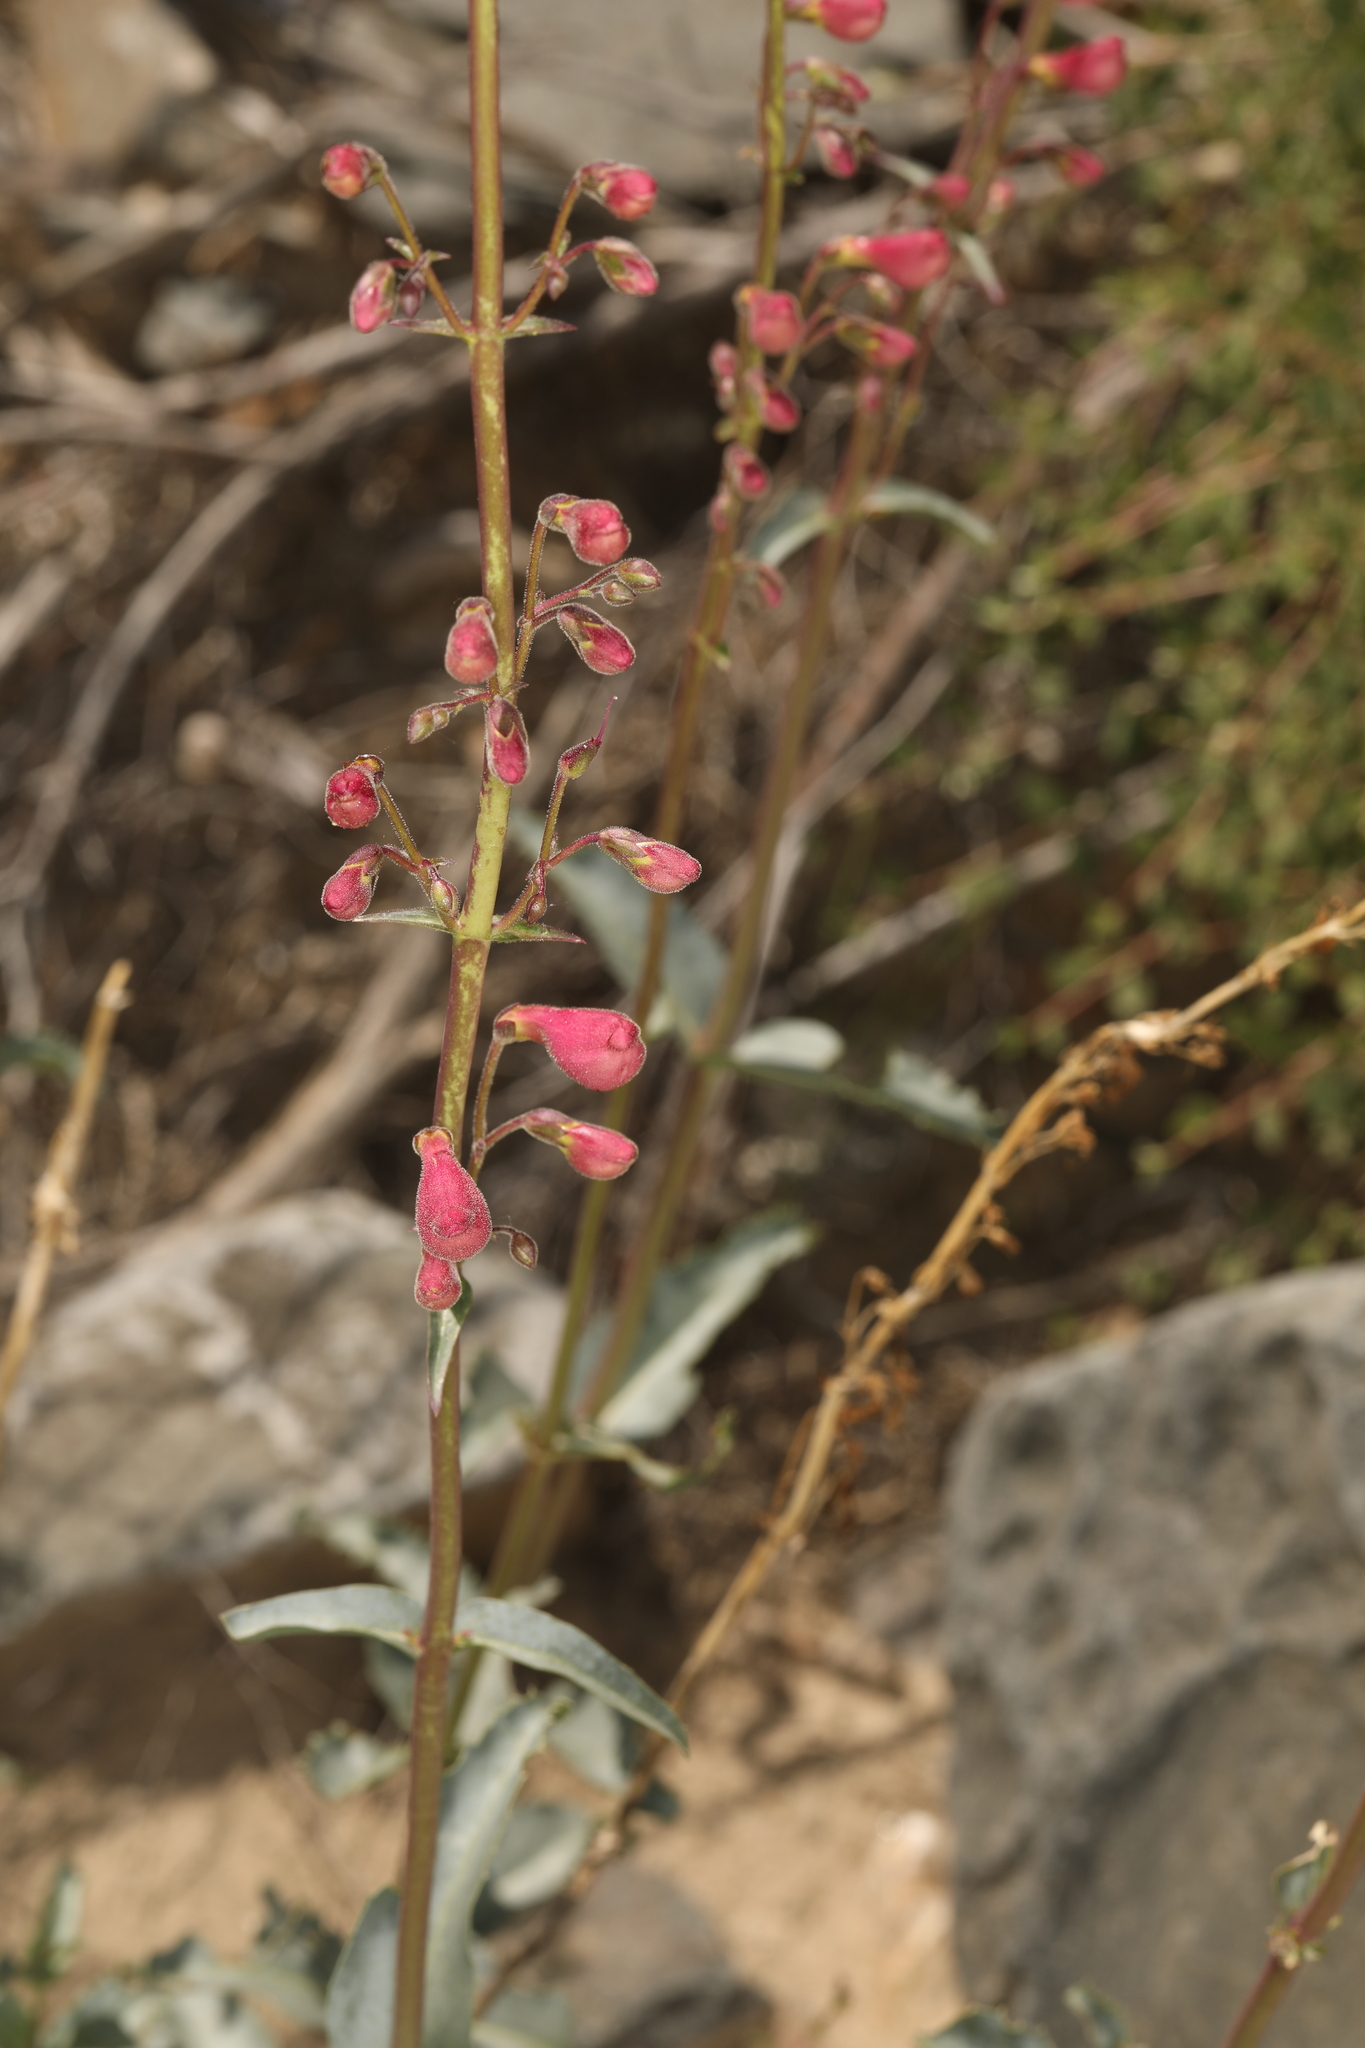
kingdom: Plantae
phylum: Tracheophyta
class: Magnoliopsida
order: Lamiales
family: Plantaginaceae
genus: Penstemon
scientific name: Penstemon floridus
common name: Panamint penstemon
